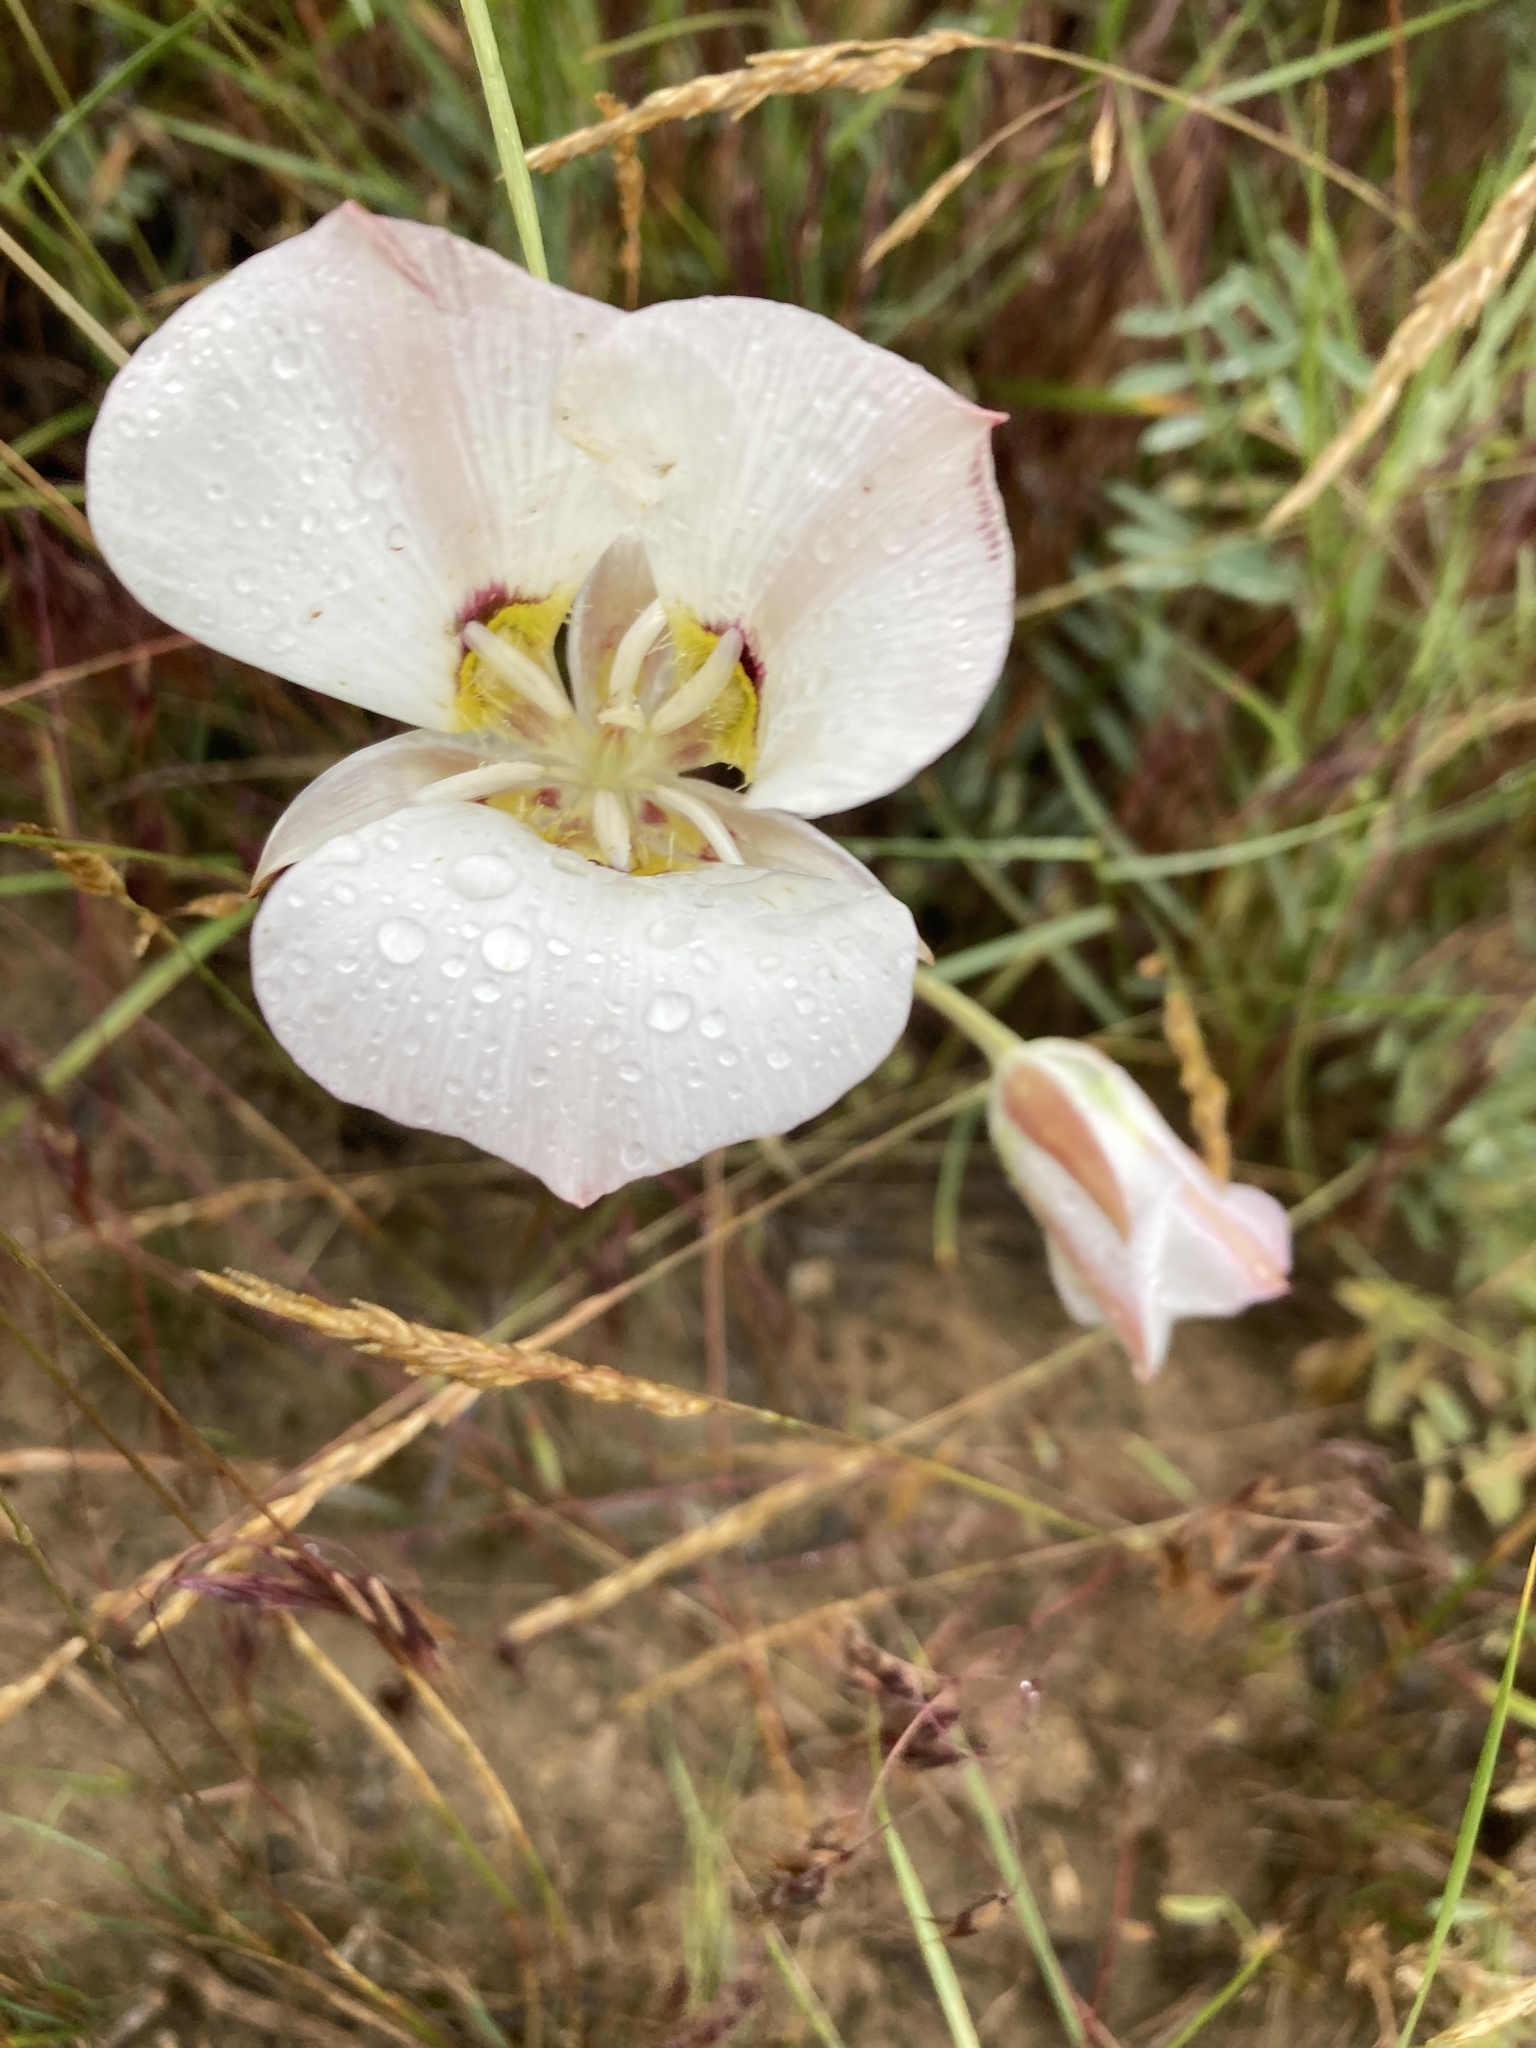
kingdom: Plantae
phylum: Tracheophyta
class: Liliopsida
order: Liliales
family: Liliaceae
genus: Calochortus
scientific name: Calochortus nuttallii
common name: Sego-lily
